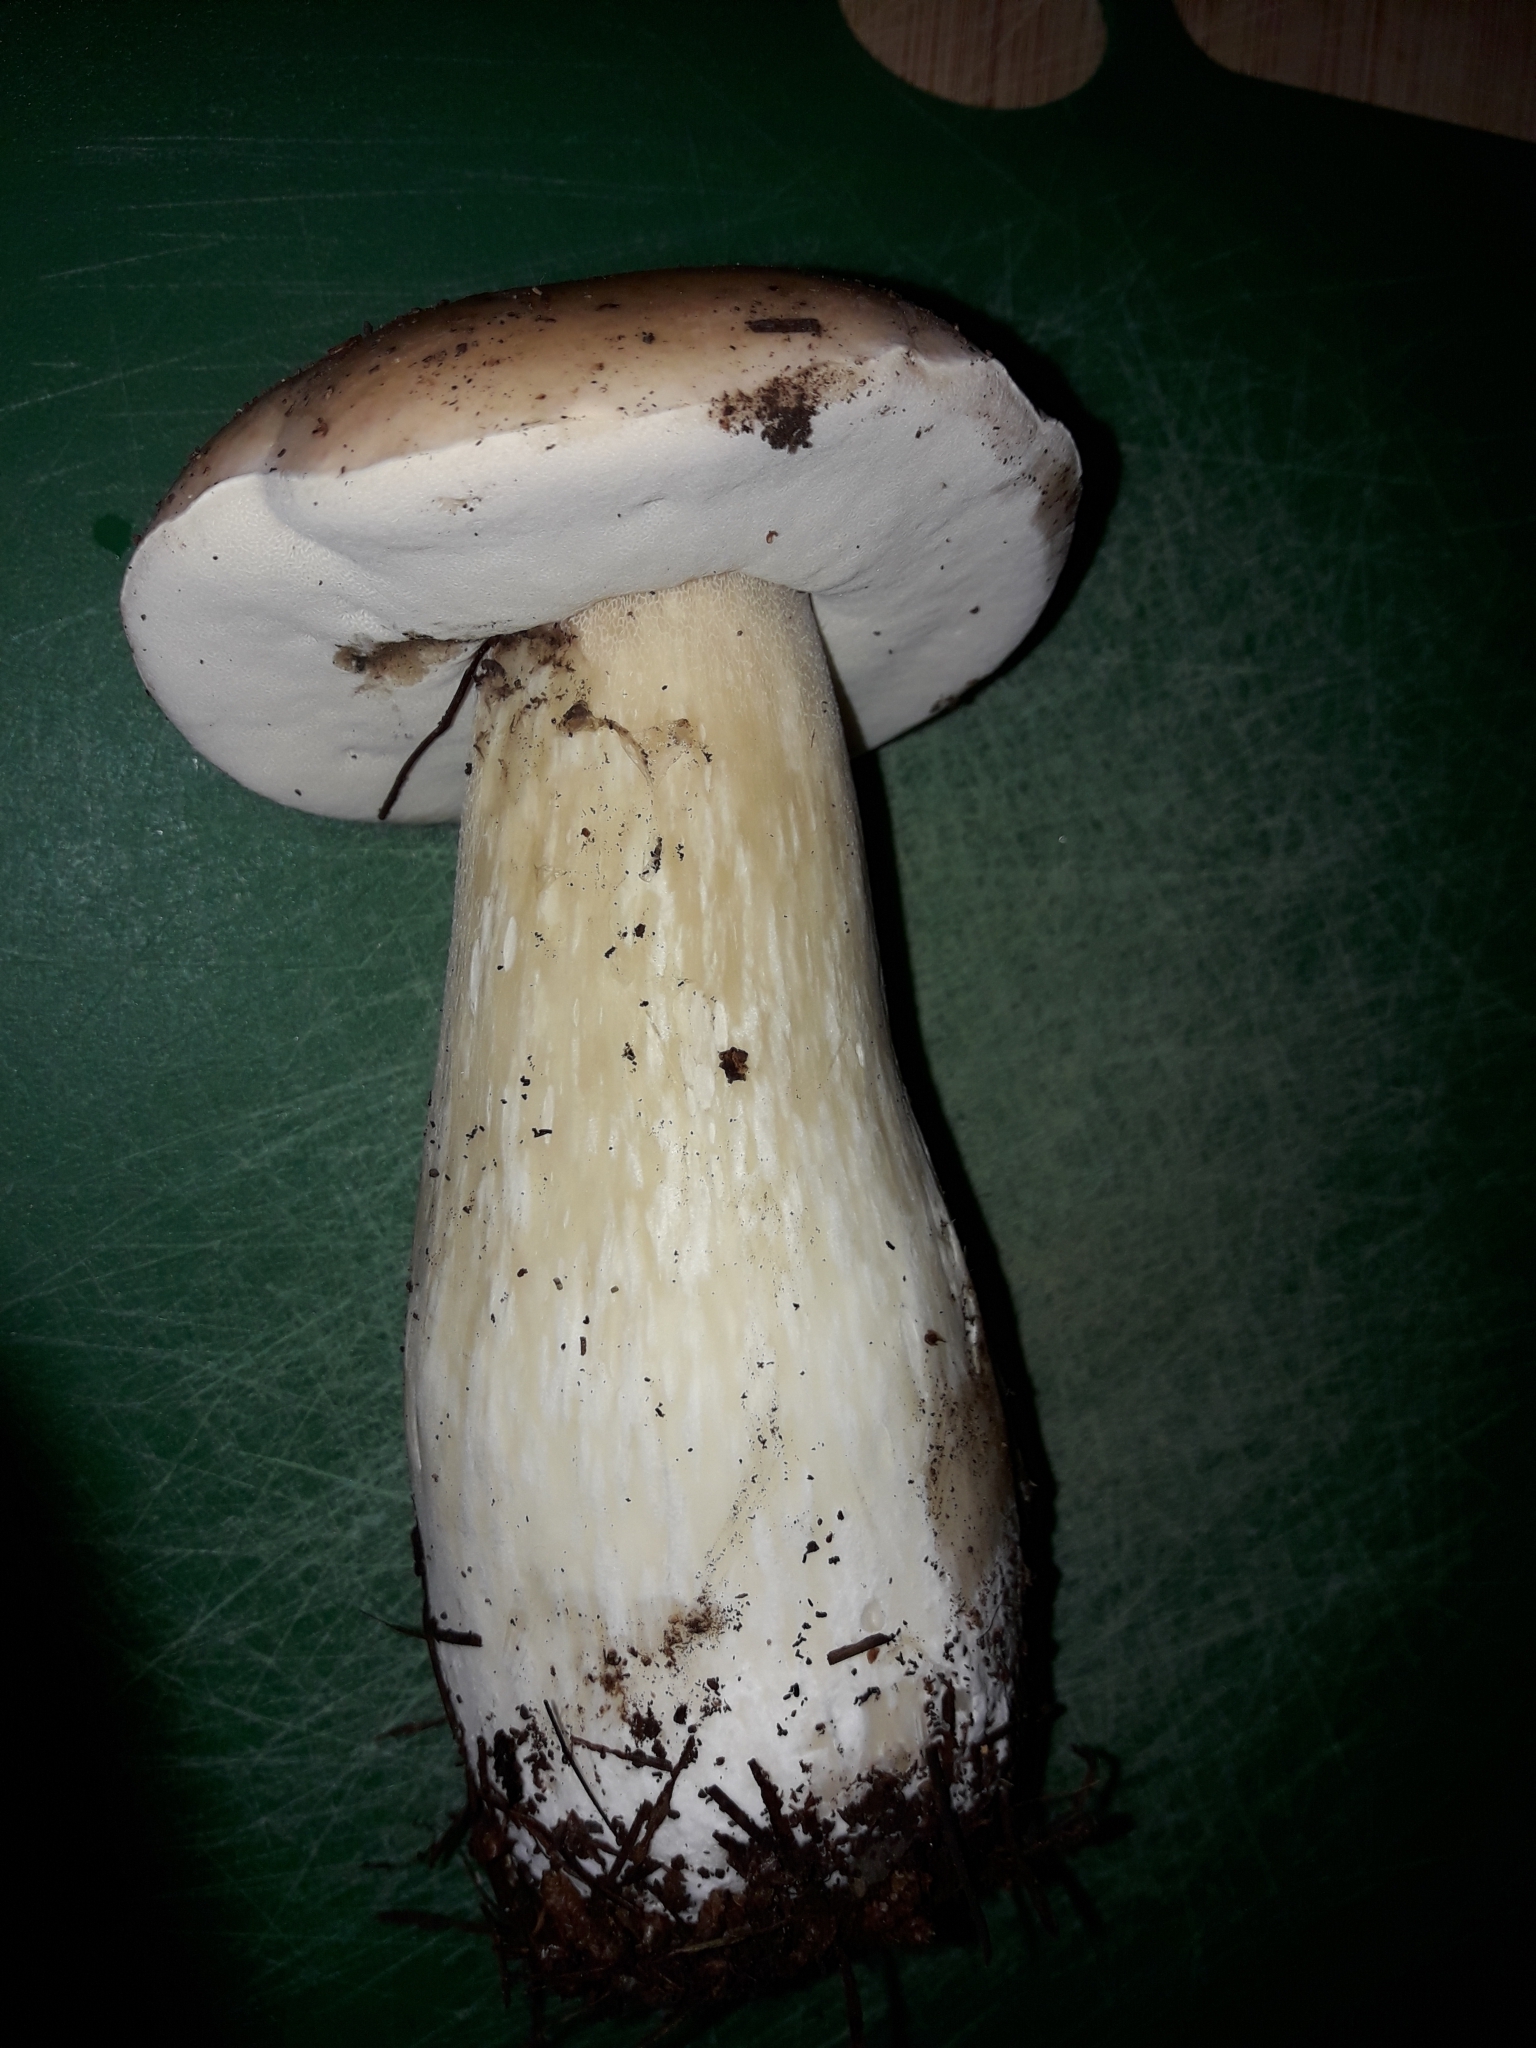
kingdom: Fungi
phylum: Basidiomycota
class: Agaricomycetes
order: Boletales
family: Boletaceae
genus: Boletus
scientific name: Boletus edulis
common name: Cep
